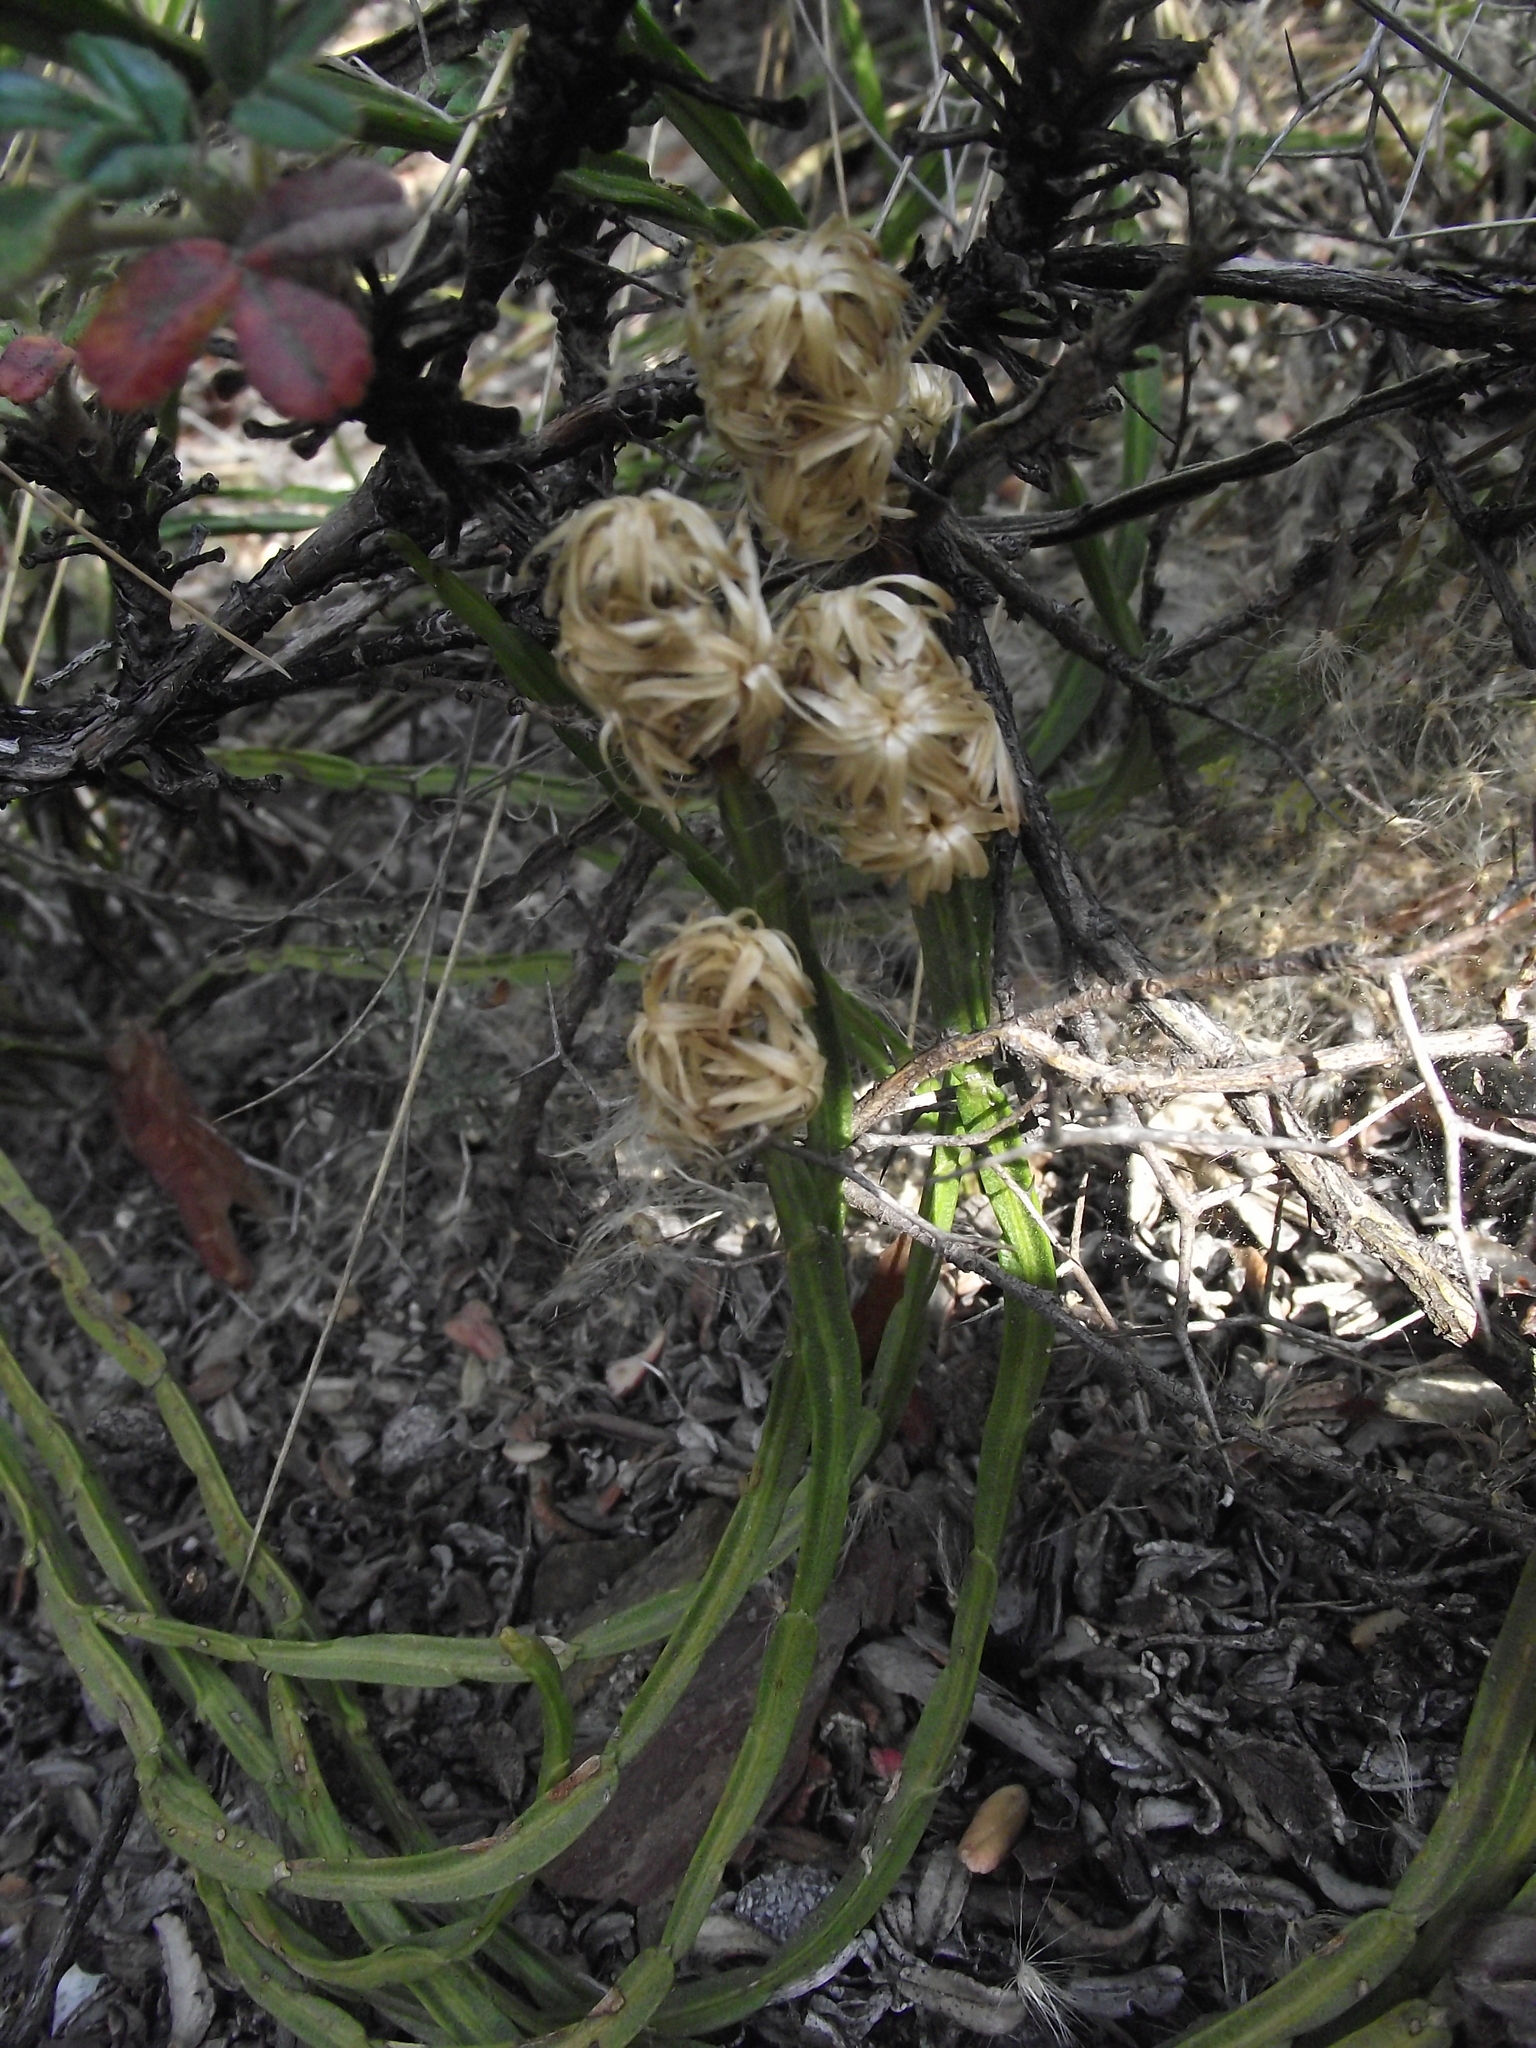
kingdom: Plantae
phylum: Tracheophyta
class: Magnoliopsida
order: Asterales
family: Asteraceae
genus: Baccharis
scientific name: Baccharis genistelloides
